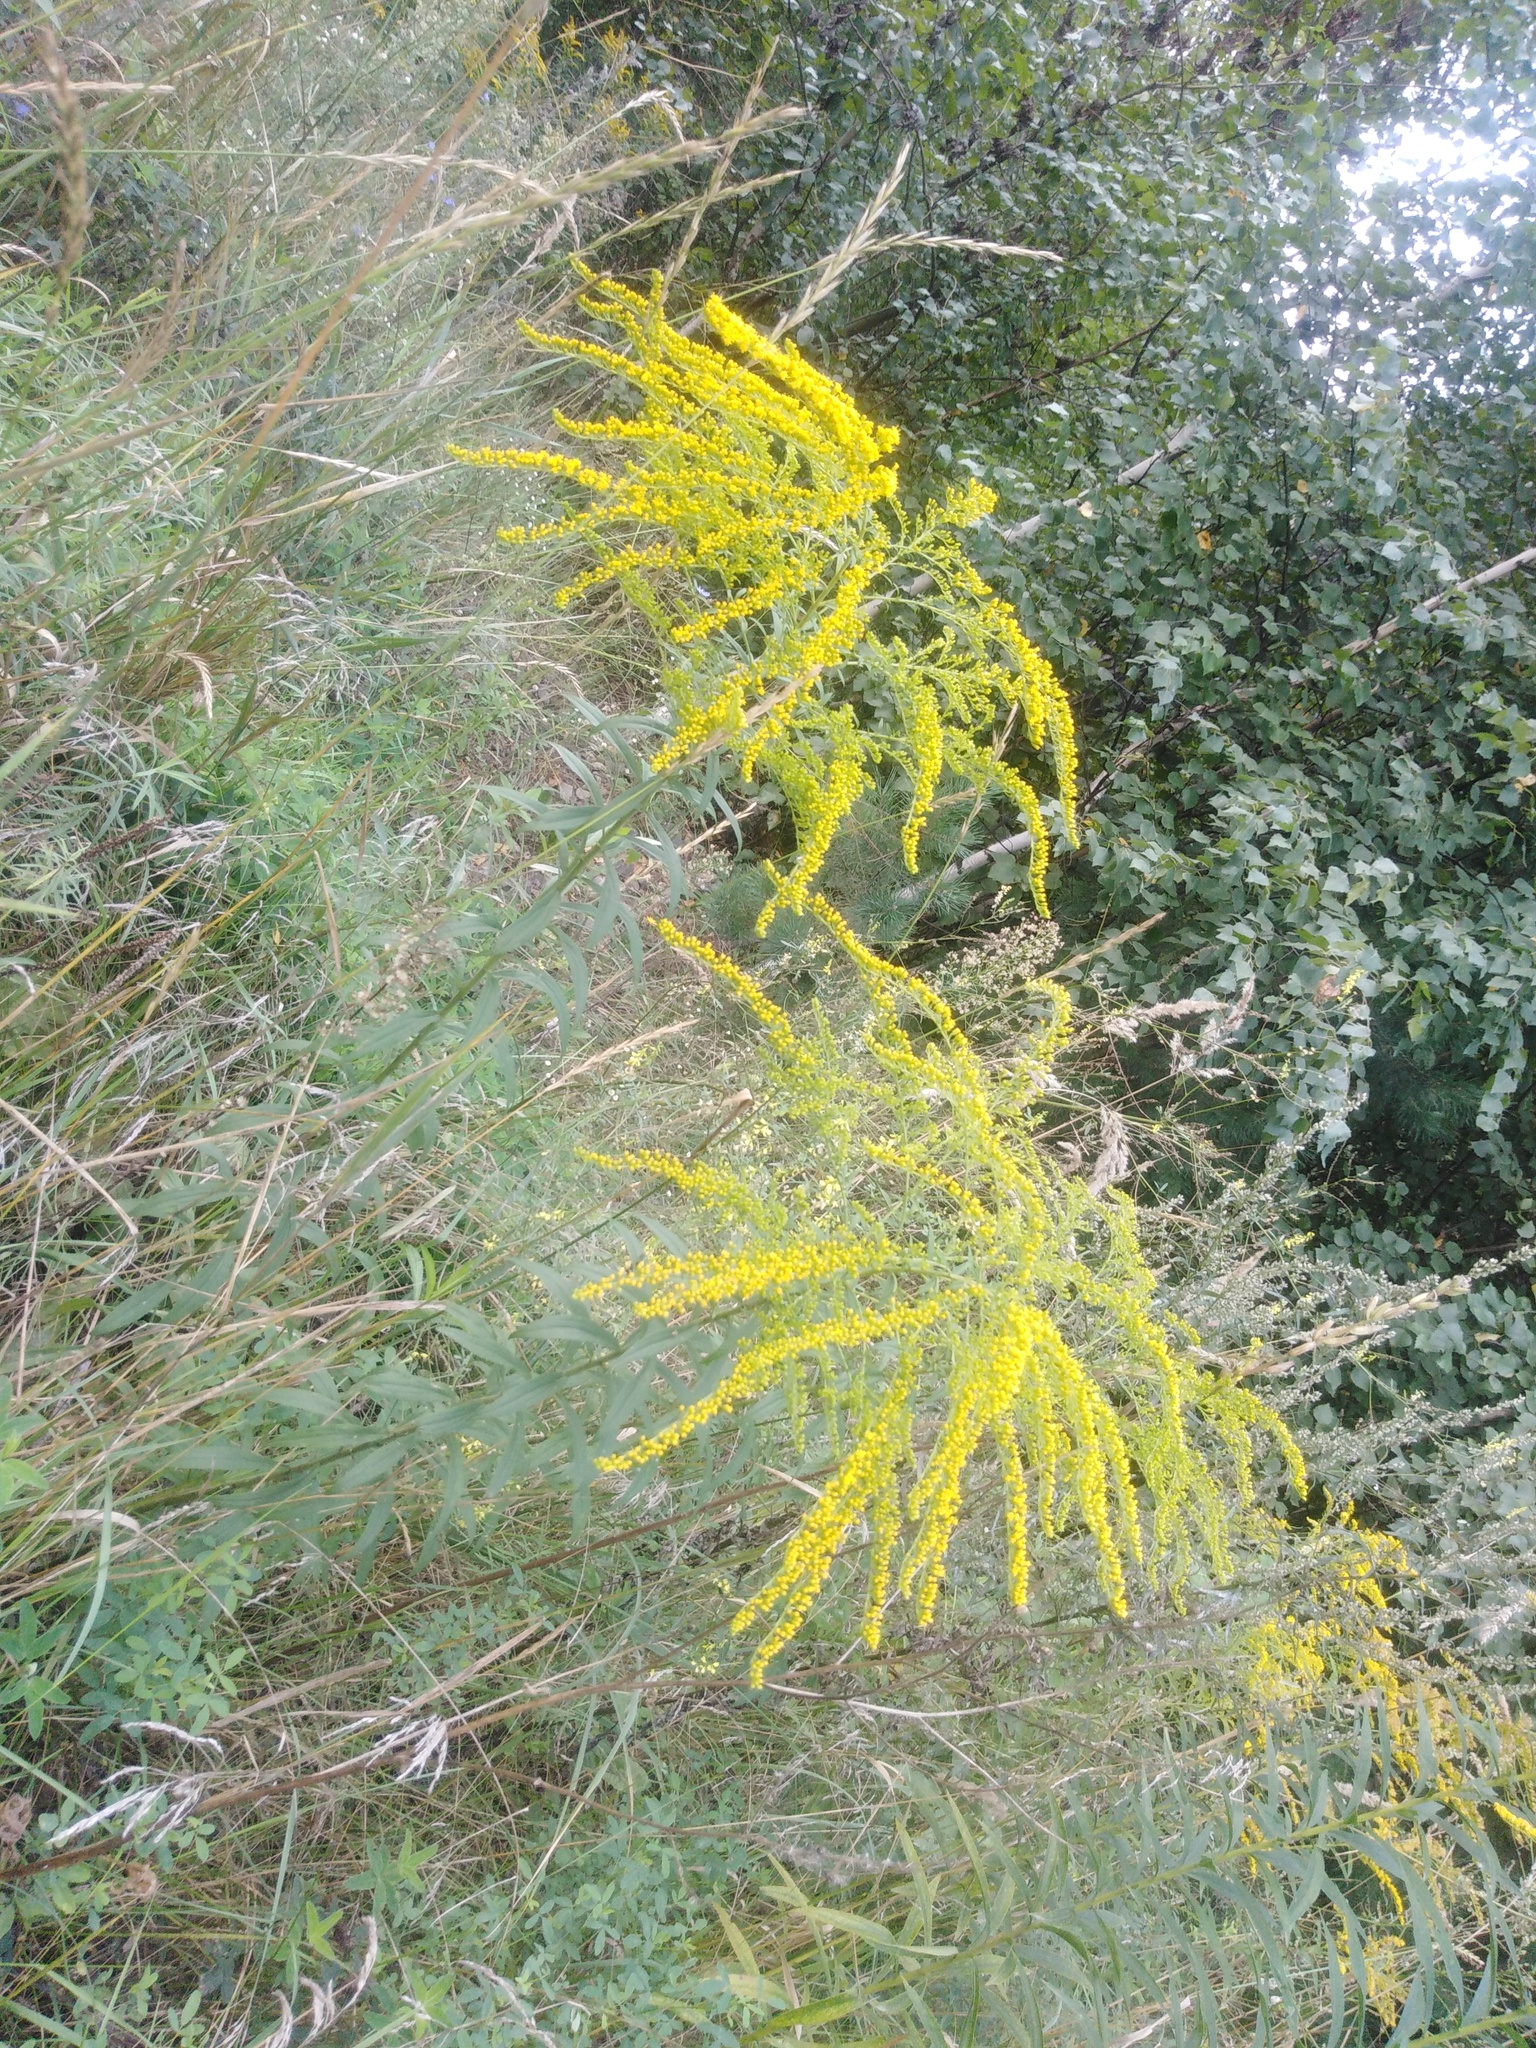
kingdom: Plantae
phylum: Tracheophyta
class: Magnoliopsida
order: Asterales
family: Asteraceae
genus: Solidago
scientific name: Solidago canadensis
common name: Canada goldenrod
